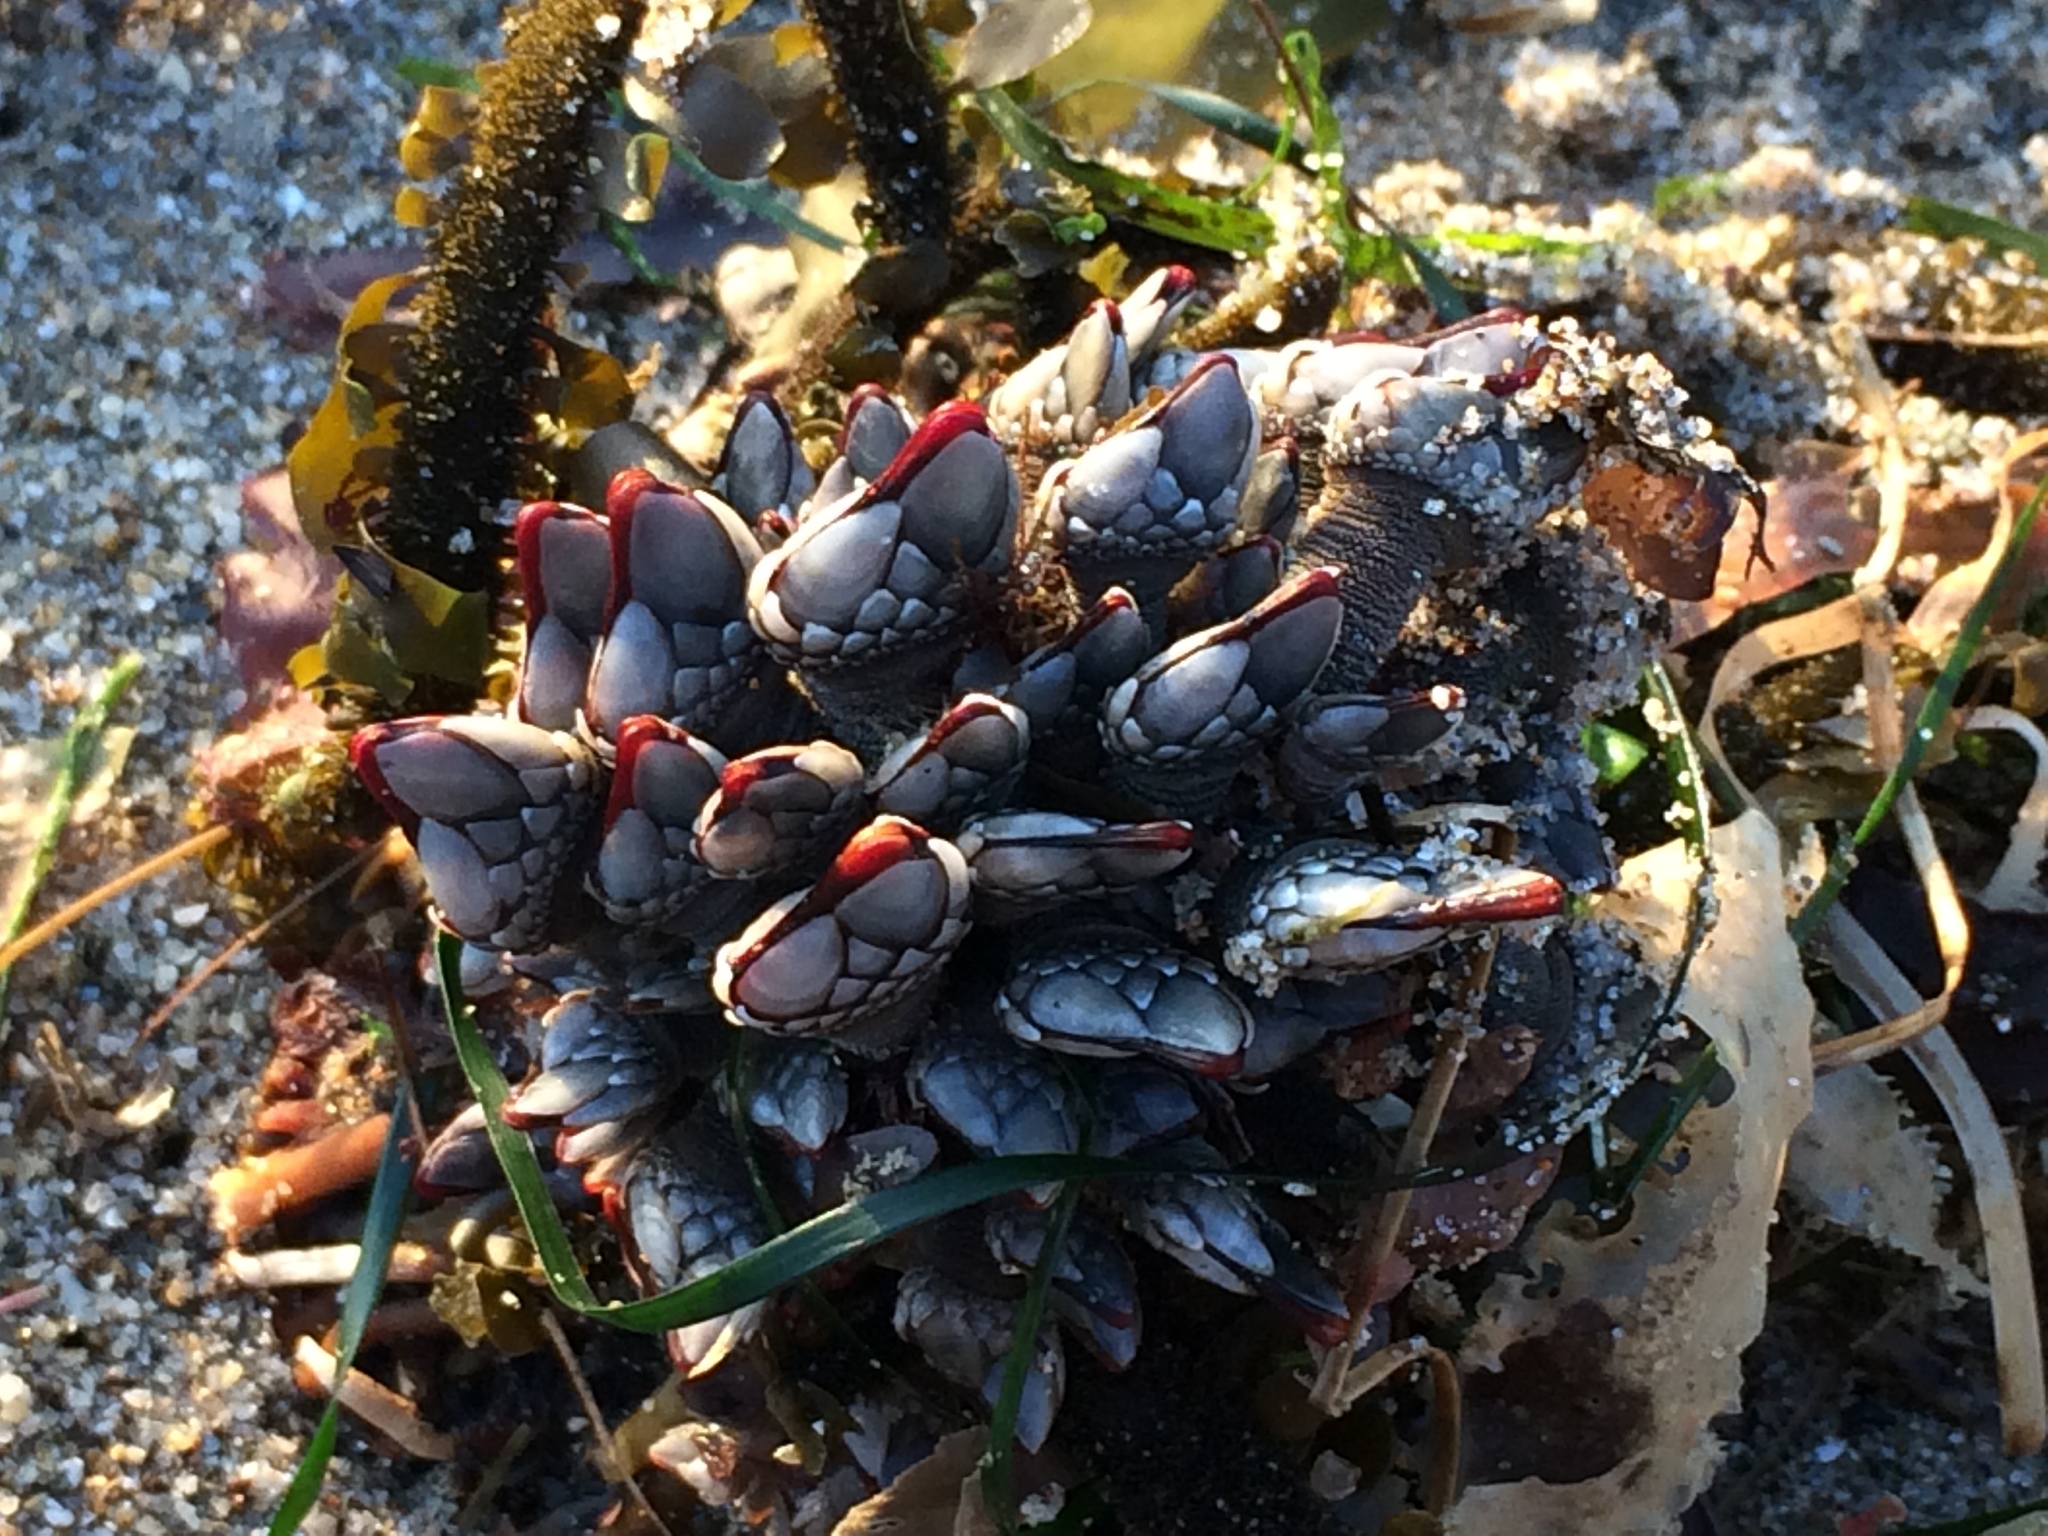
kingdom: Animalia
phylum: Arthropoda
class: Maxillopoda
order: Pedunculata
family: Pollicipedidae
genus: Pollicipes
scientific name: Pollicipes polymerus
